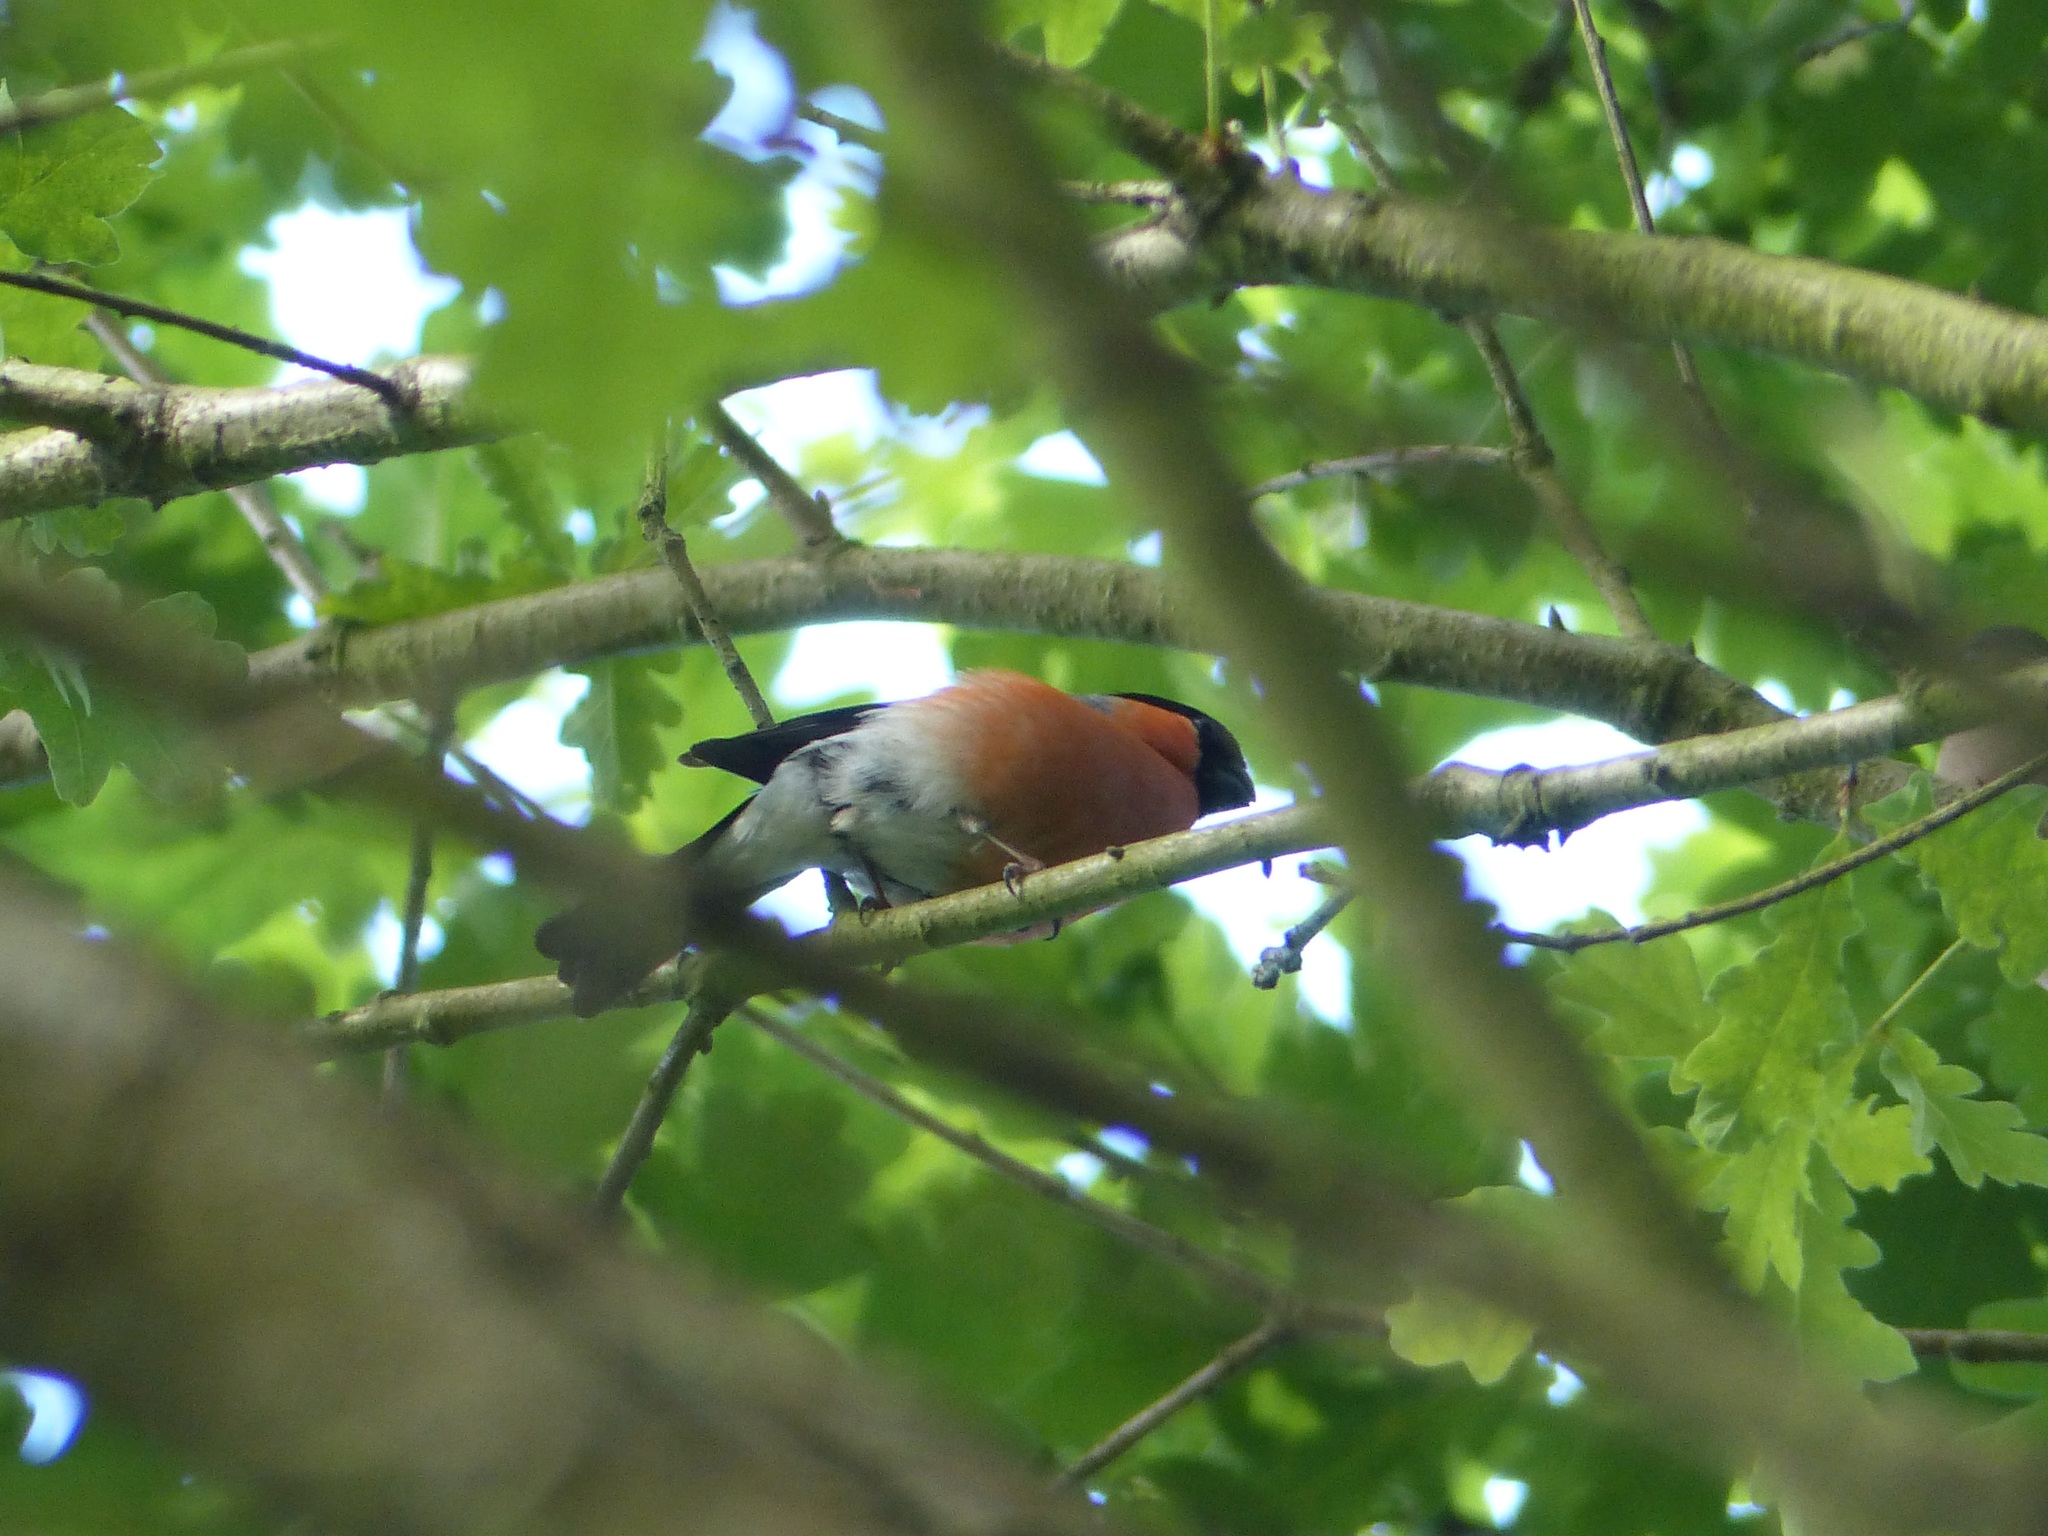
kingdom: Animalia
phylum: Chordata
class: Aves
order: Passeriformes
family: Fringillidae
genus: Pyrrhula
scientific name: Pyrrhula pyrrhula
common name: Eurasian bullfinch
